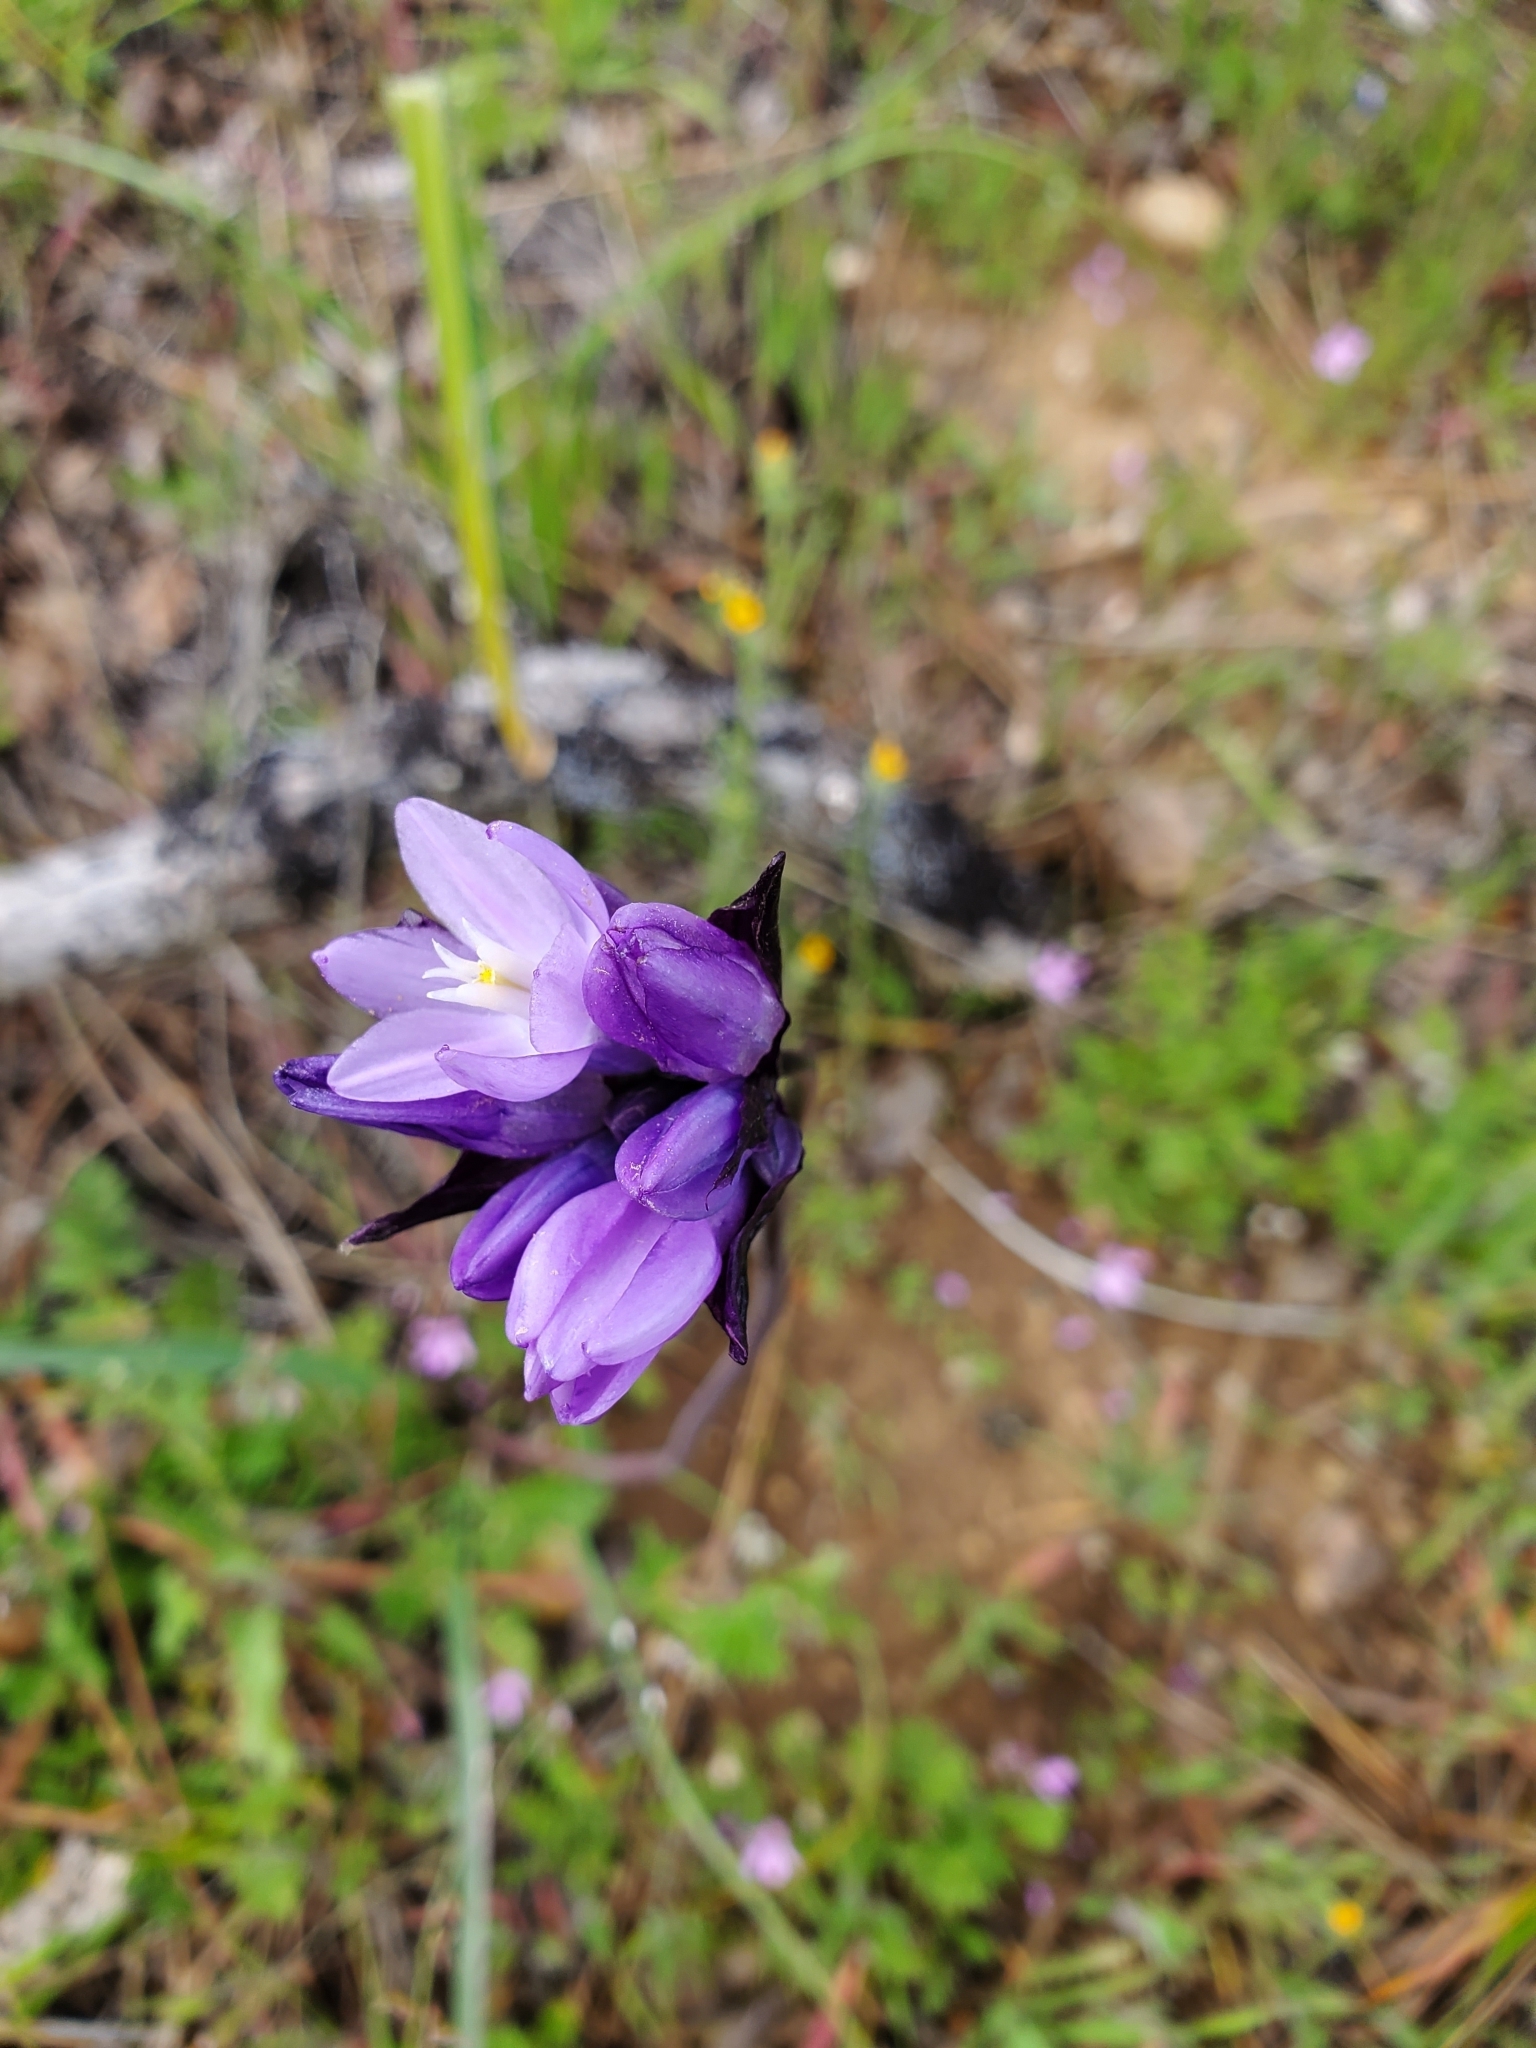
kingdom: Plantae
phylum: Tracheophyta
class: Liliopsida
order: Asparagales
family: Asparagaceae
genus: Dipterostemon
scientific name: Dipterostemon capitatus
